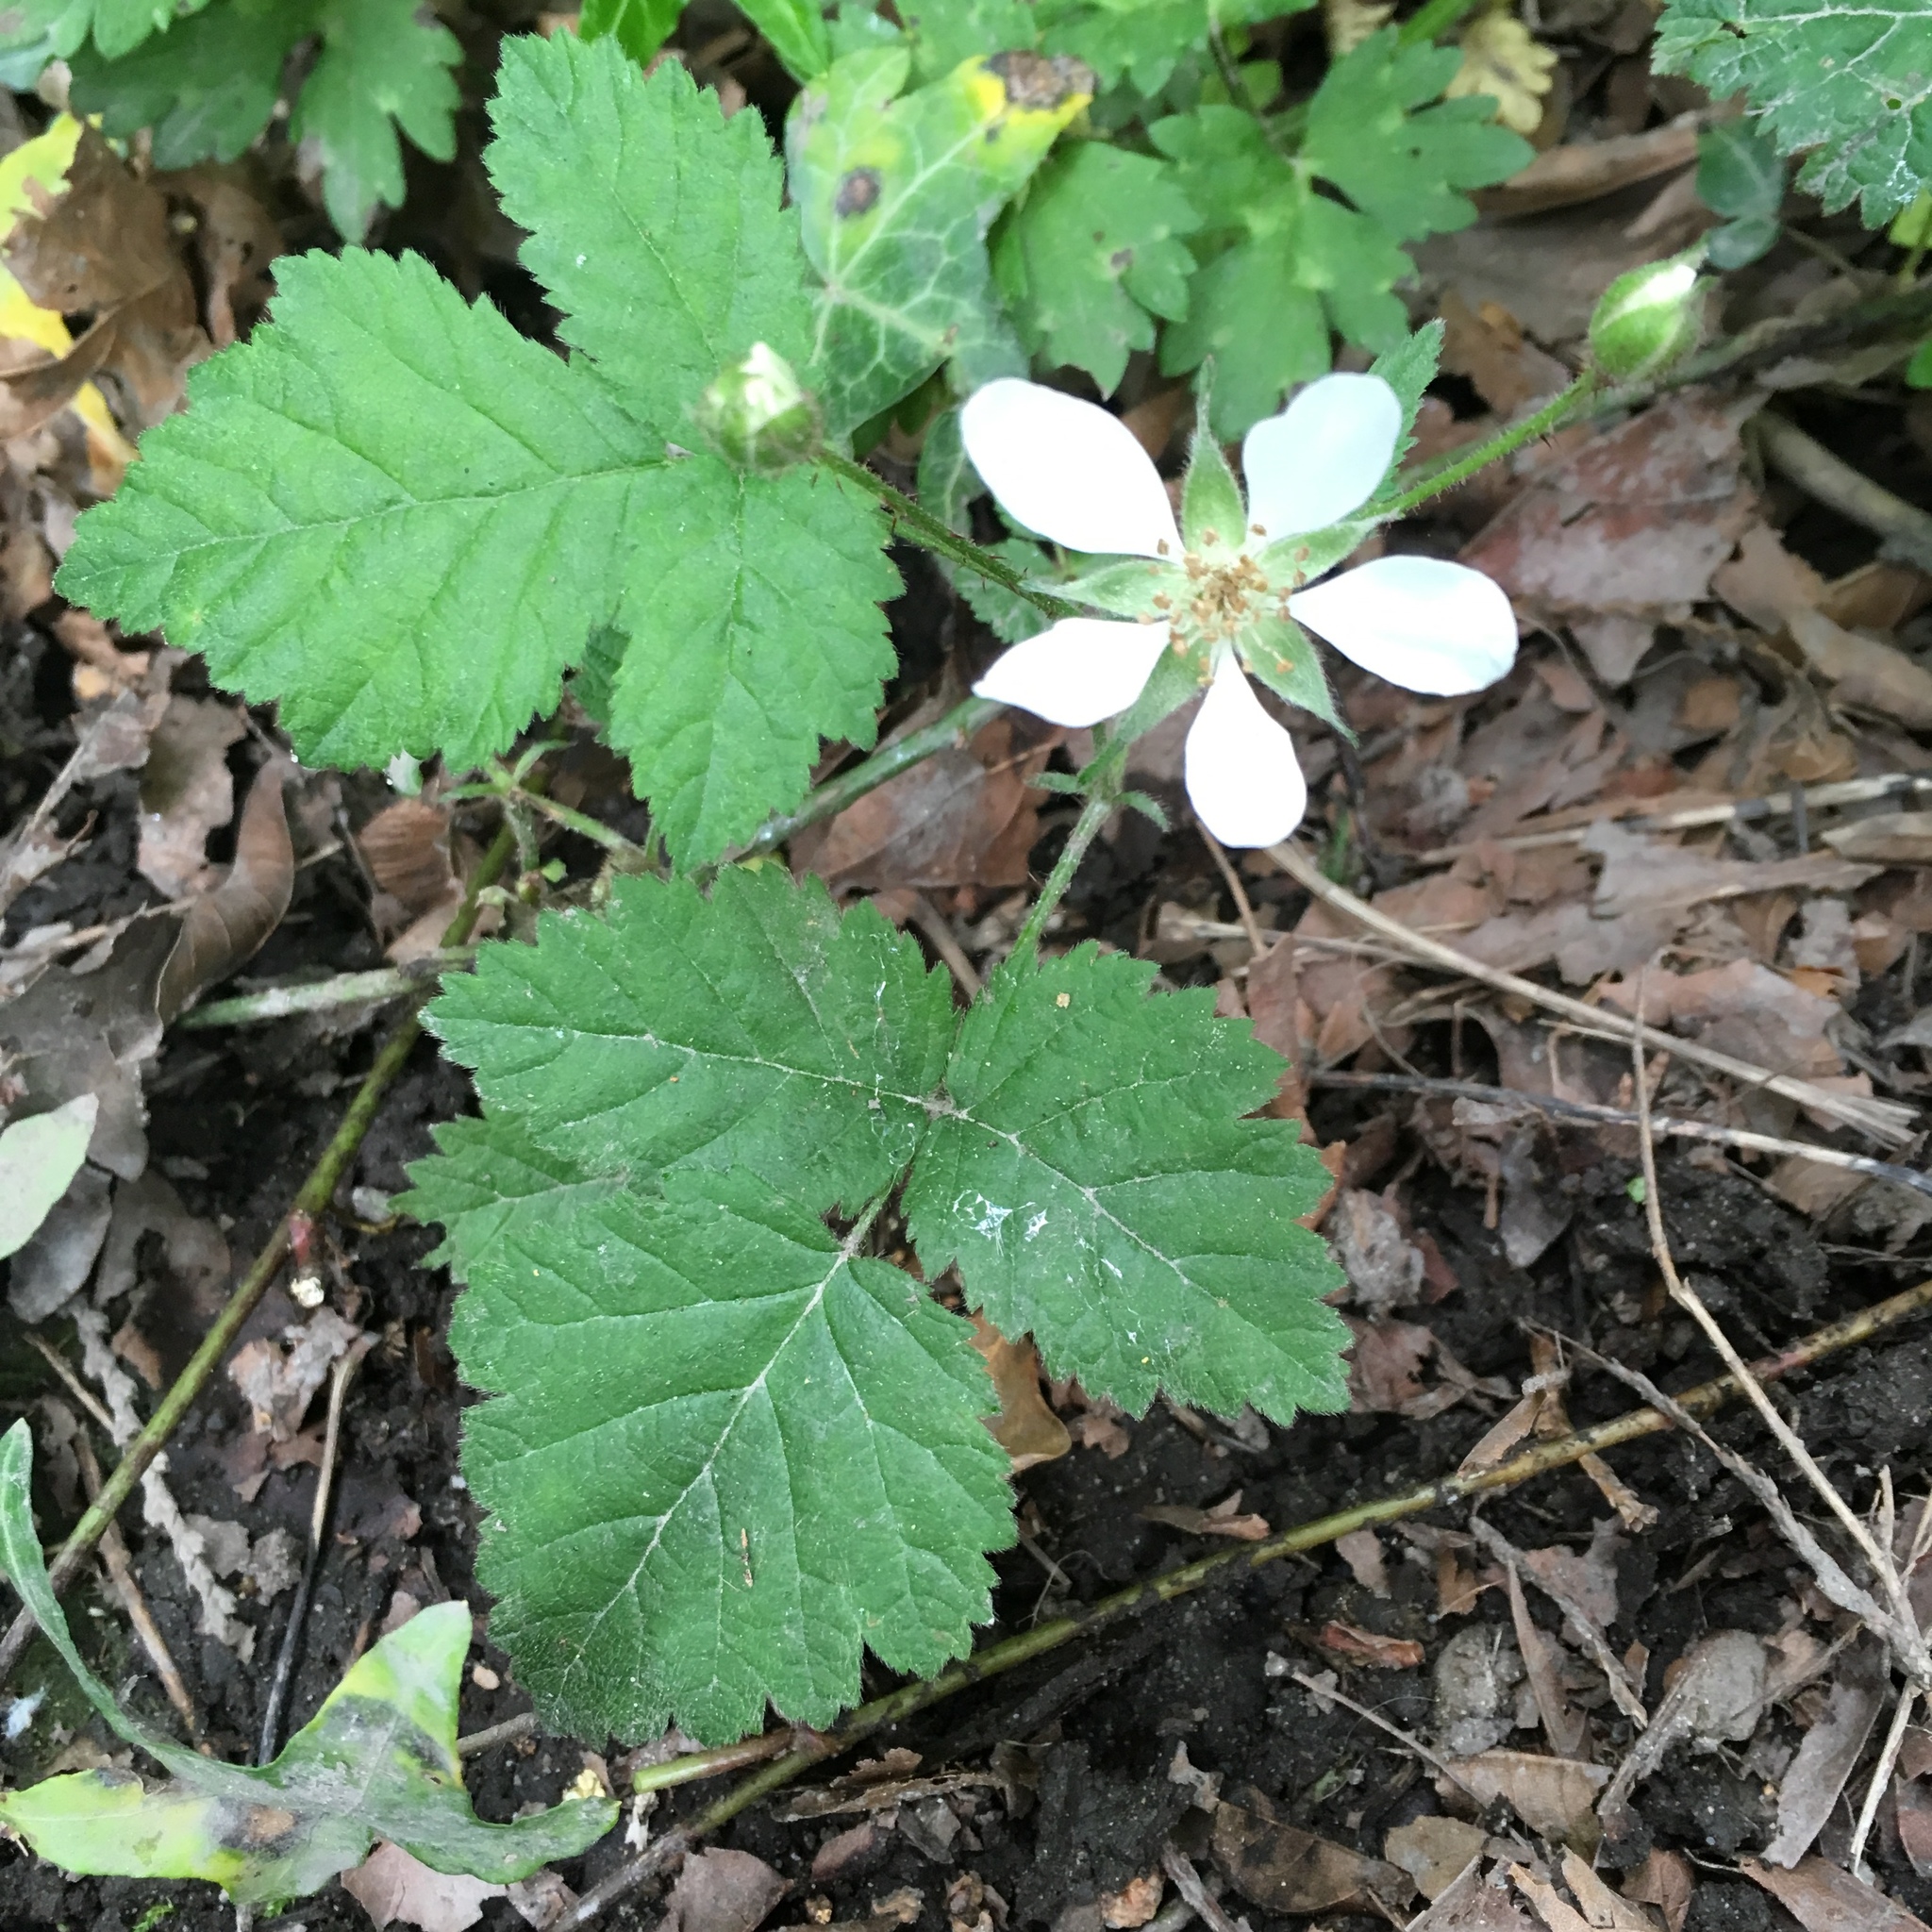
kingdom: Plantae
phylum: Tracheophyta
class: Magnoliopsida
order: Rosales
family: Rosaceae
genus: Rubus
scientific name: Rubus ursinus
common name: Pacific blackberry
